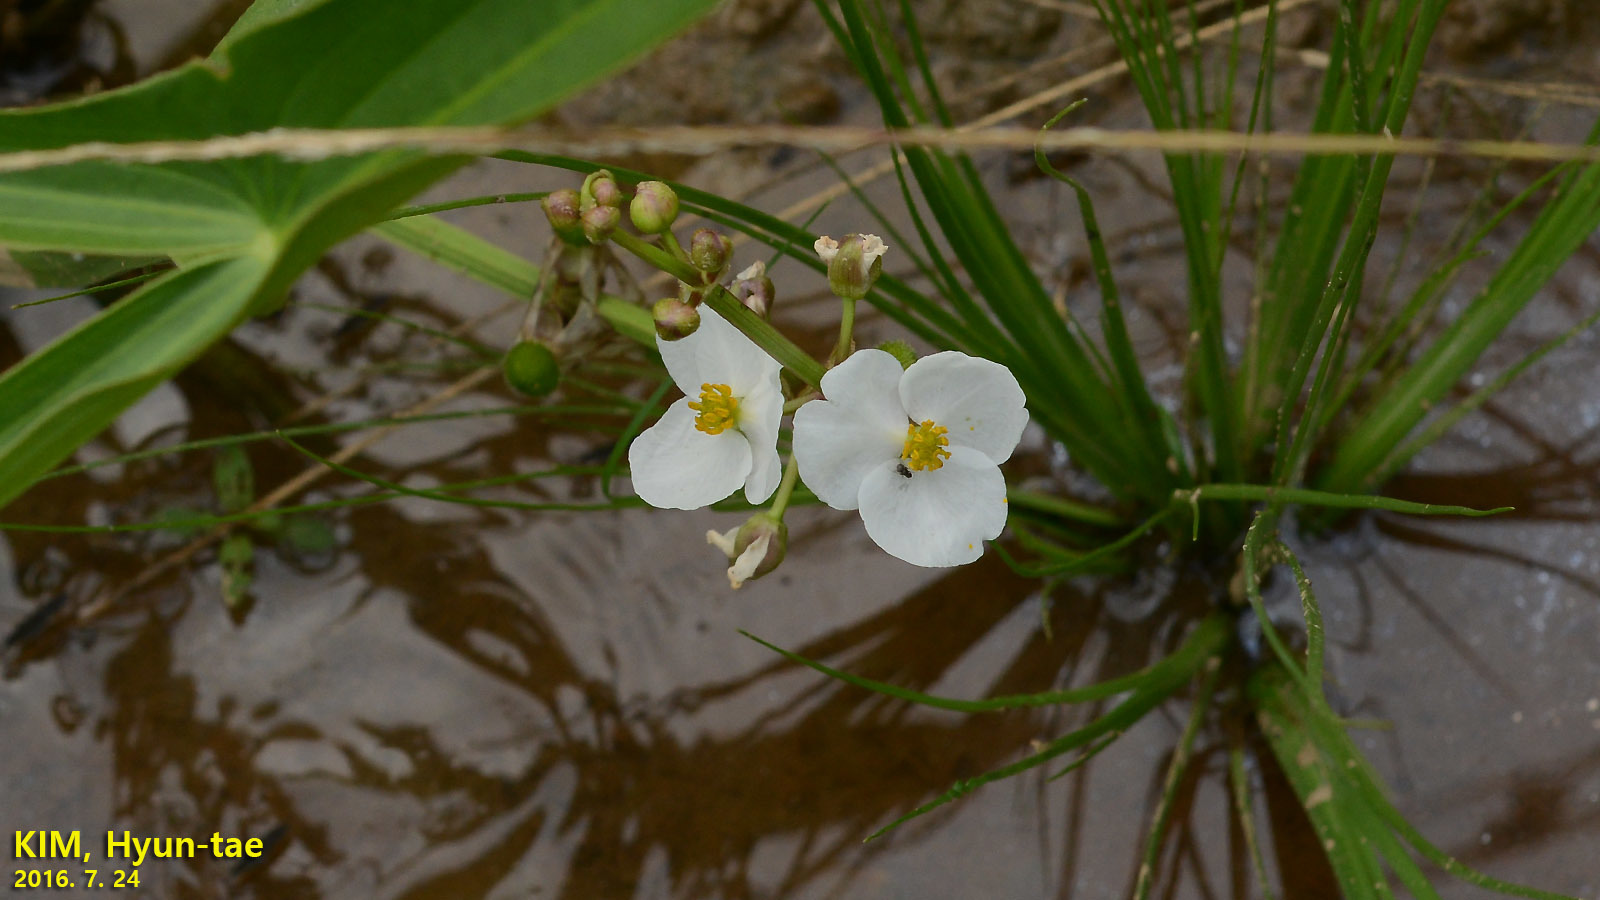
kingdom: Plantae
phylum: Tracheophyta
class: Liliopsida
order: Alismatales
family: Alismataceae
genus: Sagittaria
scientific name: Sagittaria trifolia
